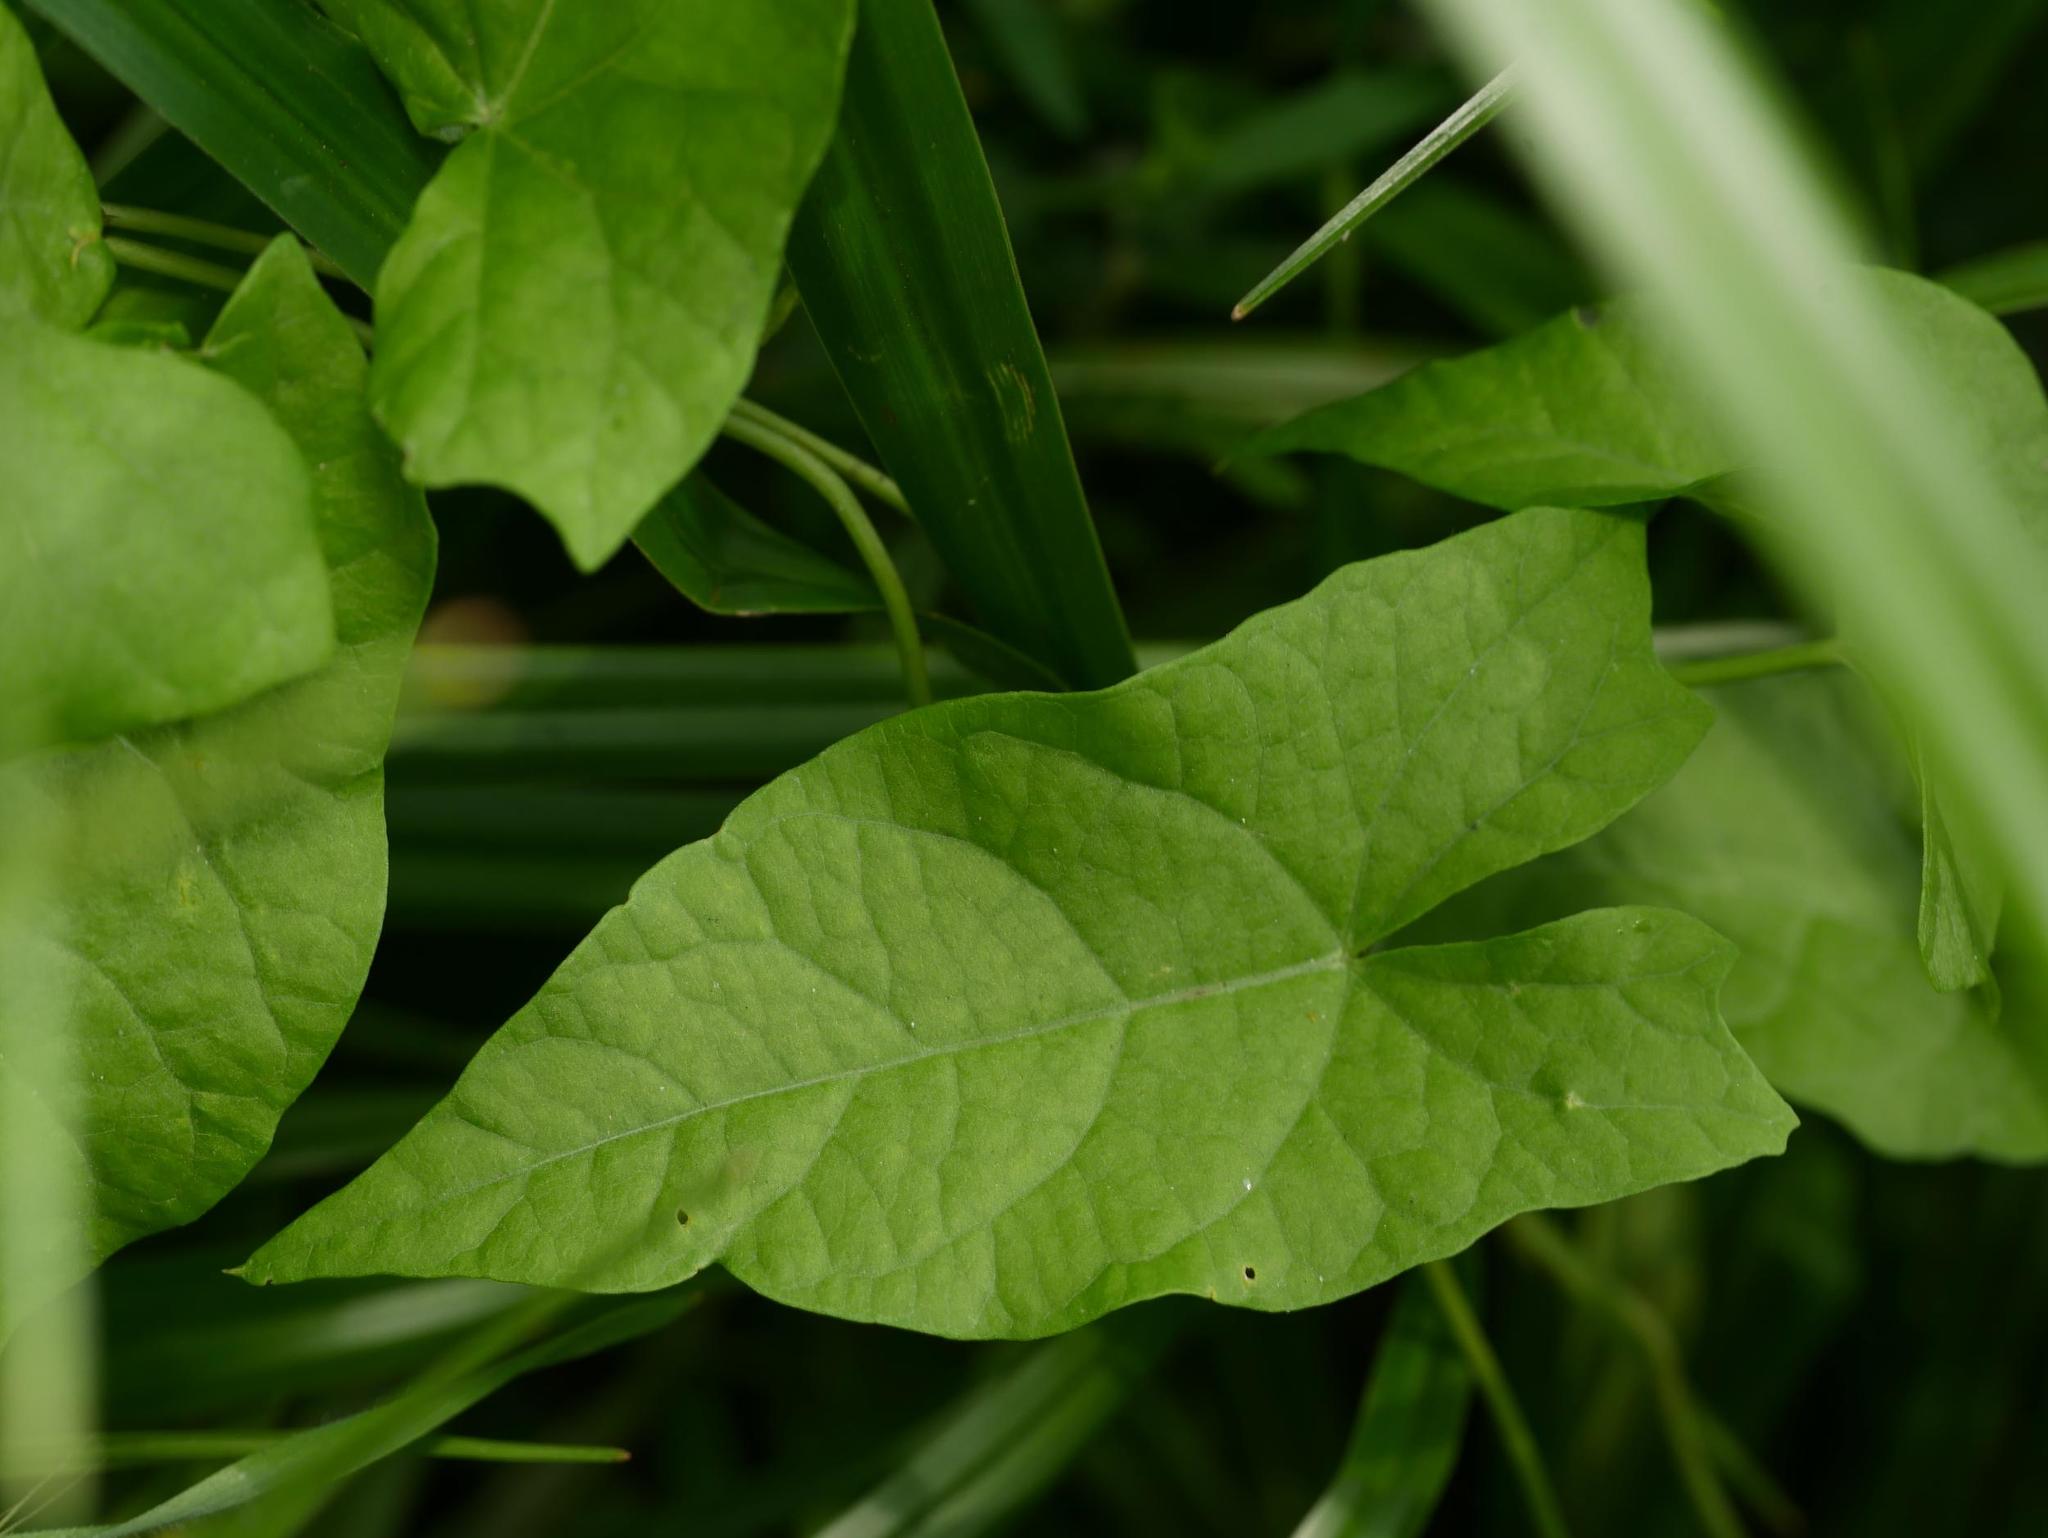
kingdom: Plantae
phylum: Tracheophyta
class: Magnoliopsida
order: Solanales
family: Convolvulaceae
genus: Calystegia
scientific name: Calystegia sepium
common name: Hedge bindweed
